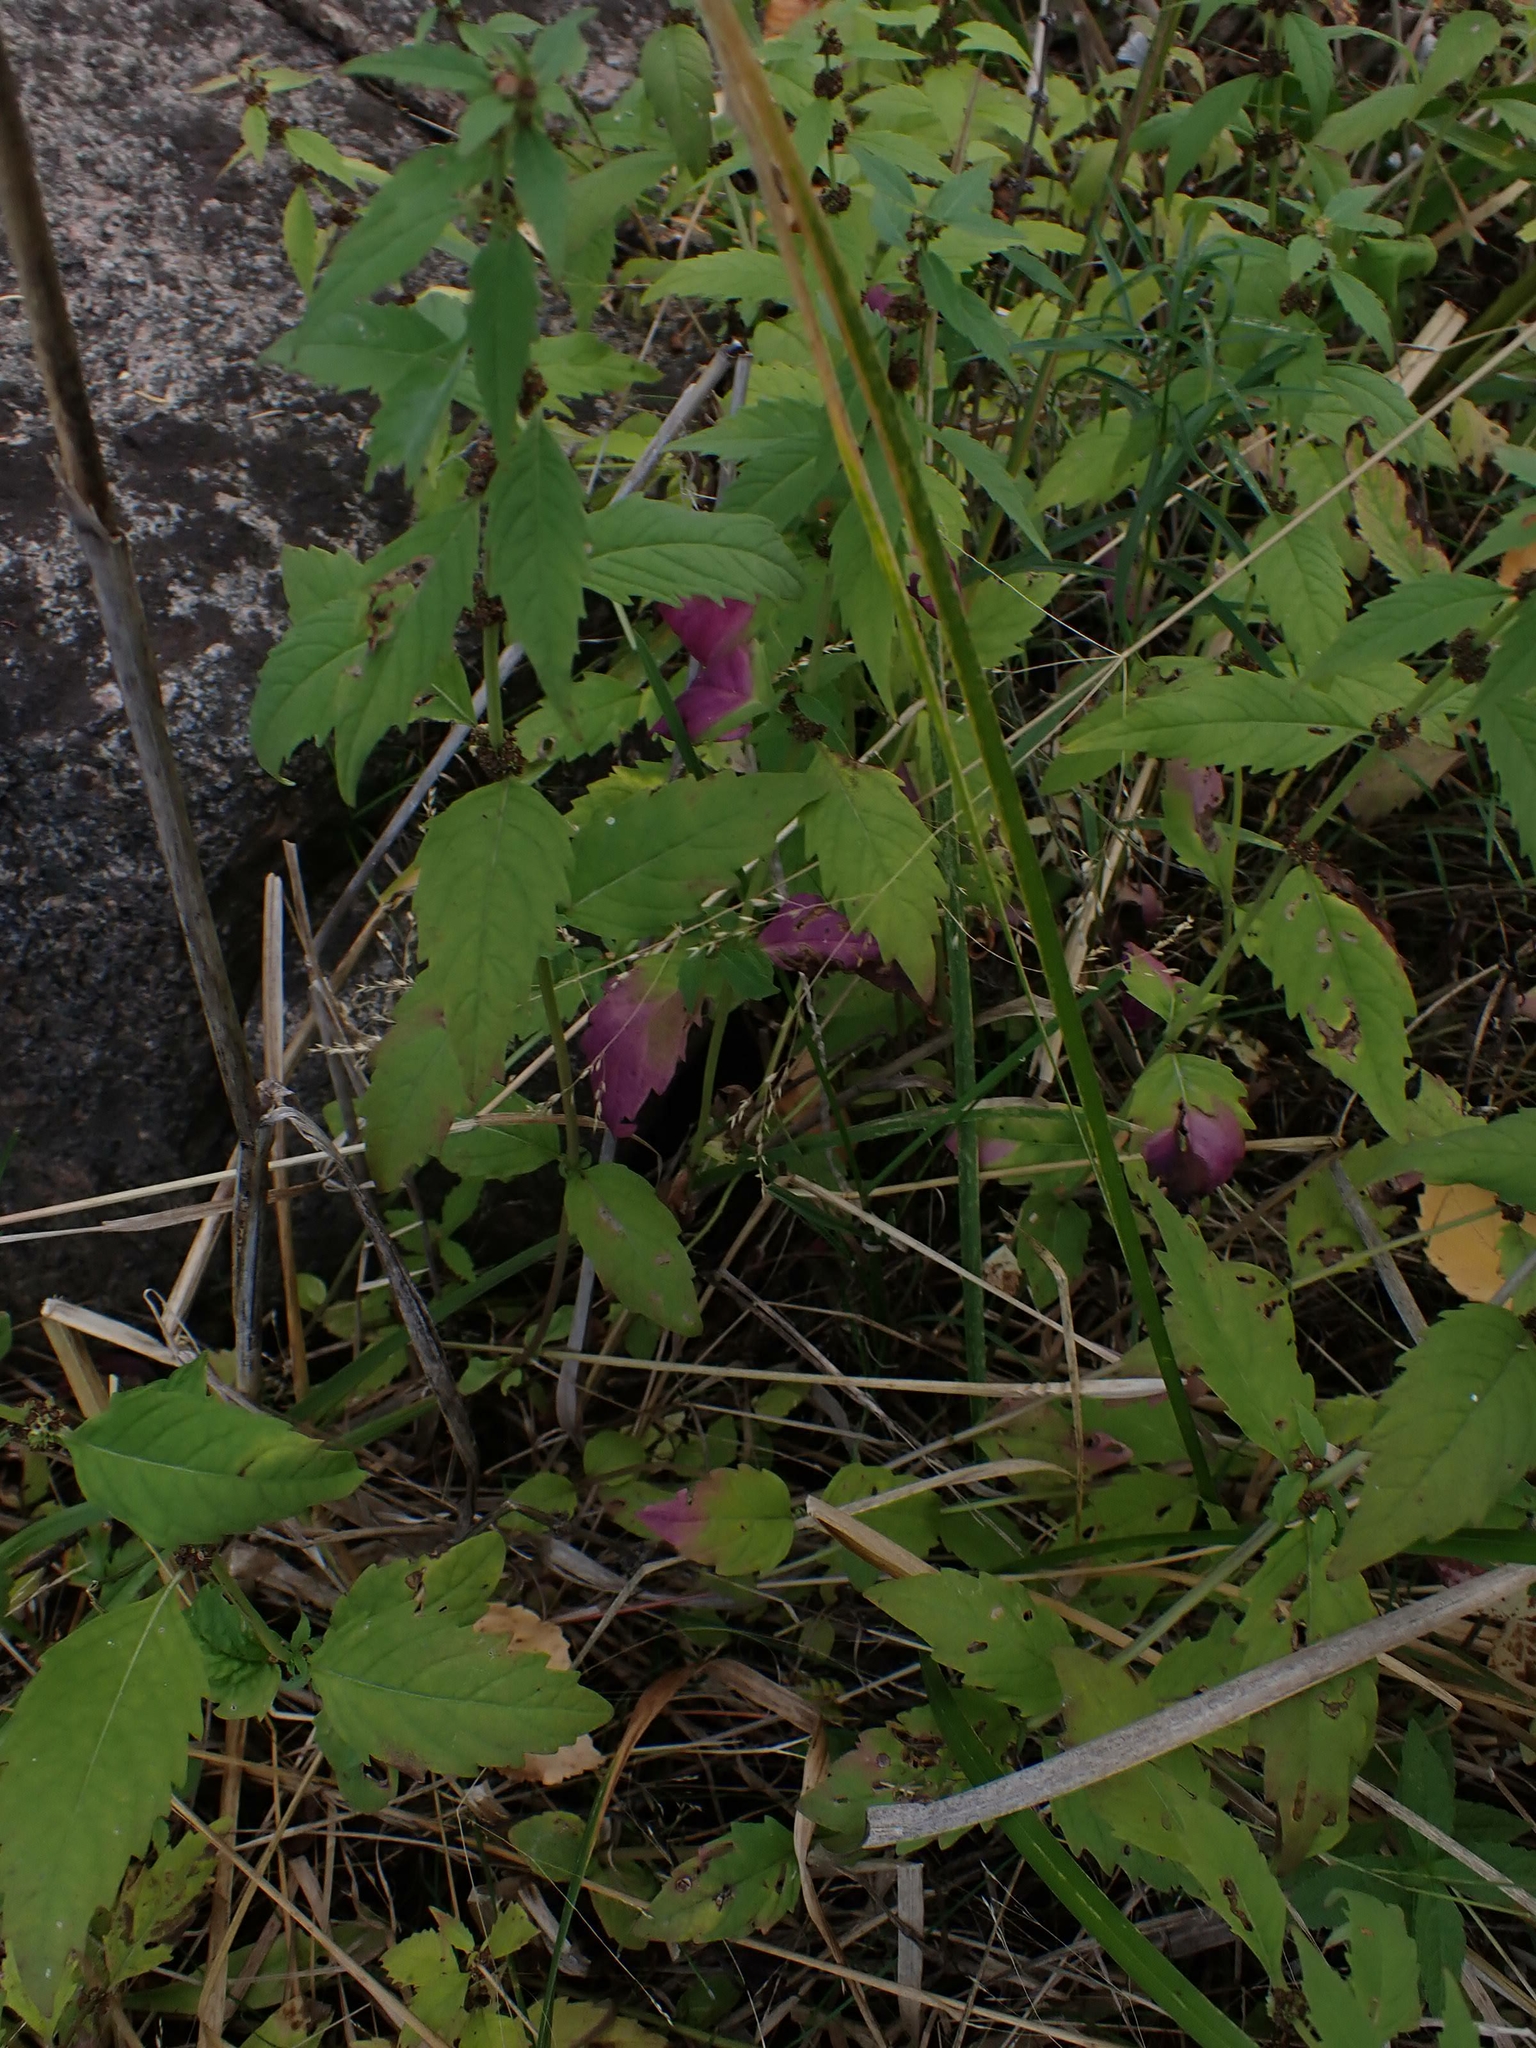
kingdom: Plantae
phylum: Tracheophyta
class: Magnoliopsida
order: Lamiales
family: Lamiaceae
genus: Lycopus
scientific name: Lycopus uniflorus
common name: Northern bugleweed
